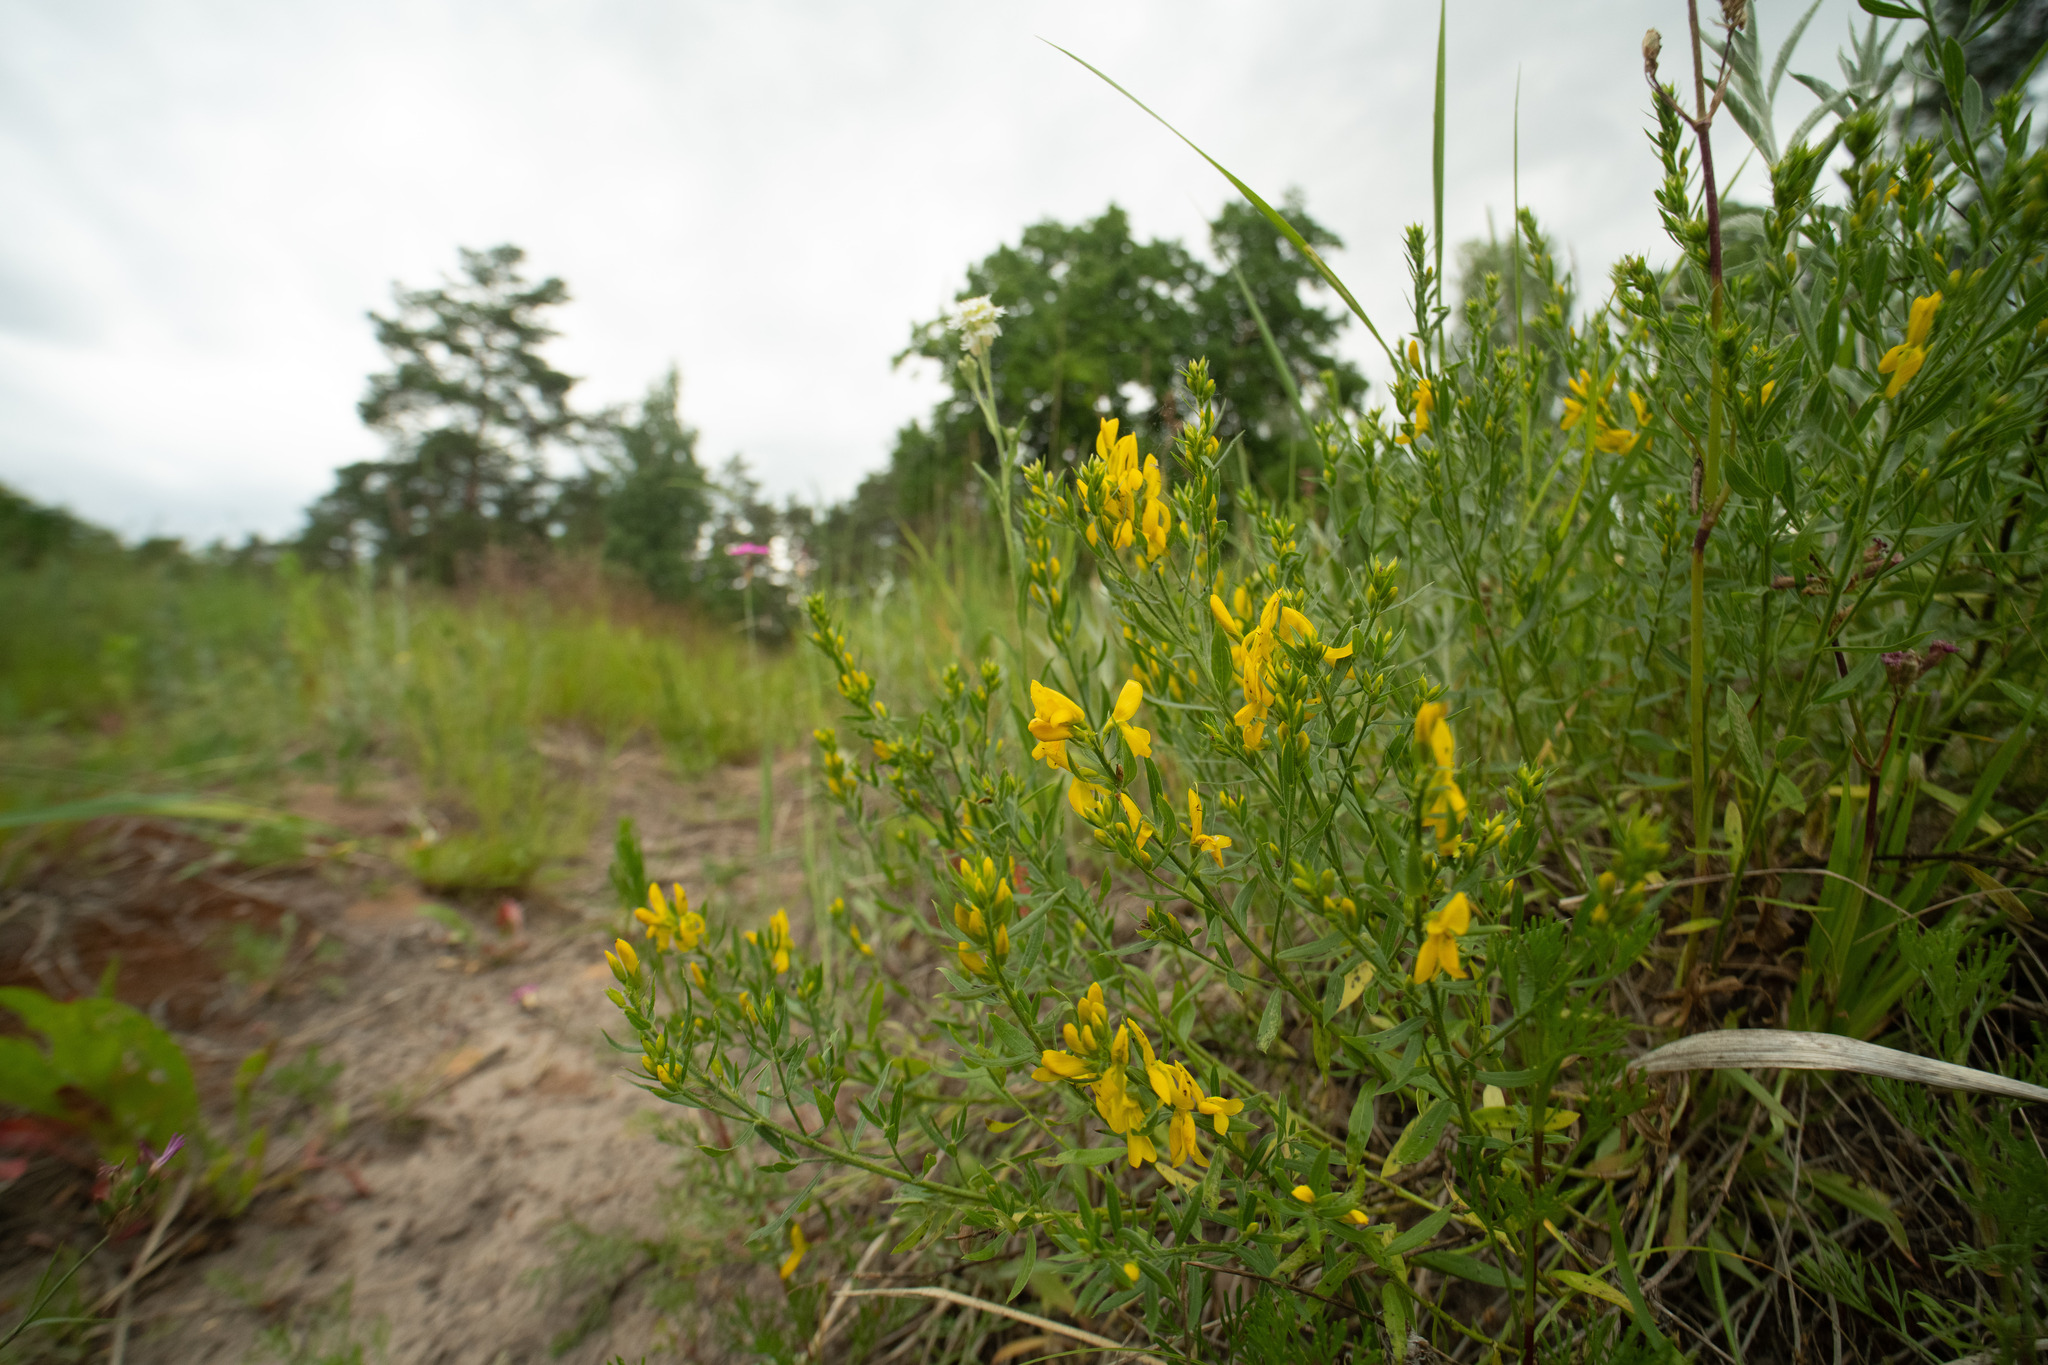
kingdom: Plantae
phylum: Tracheophyta
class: Magnoliopsida
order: Fabales
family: Fabaceae
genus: Genista
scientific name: Genista tinctoria
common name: Dyer's greenweed
